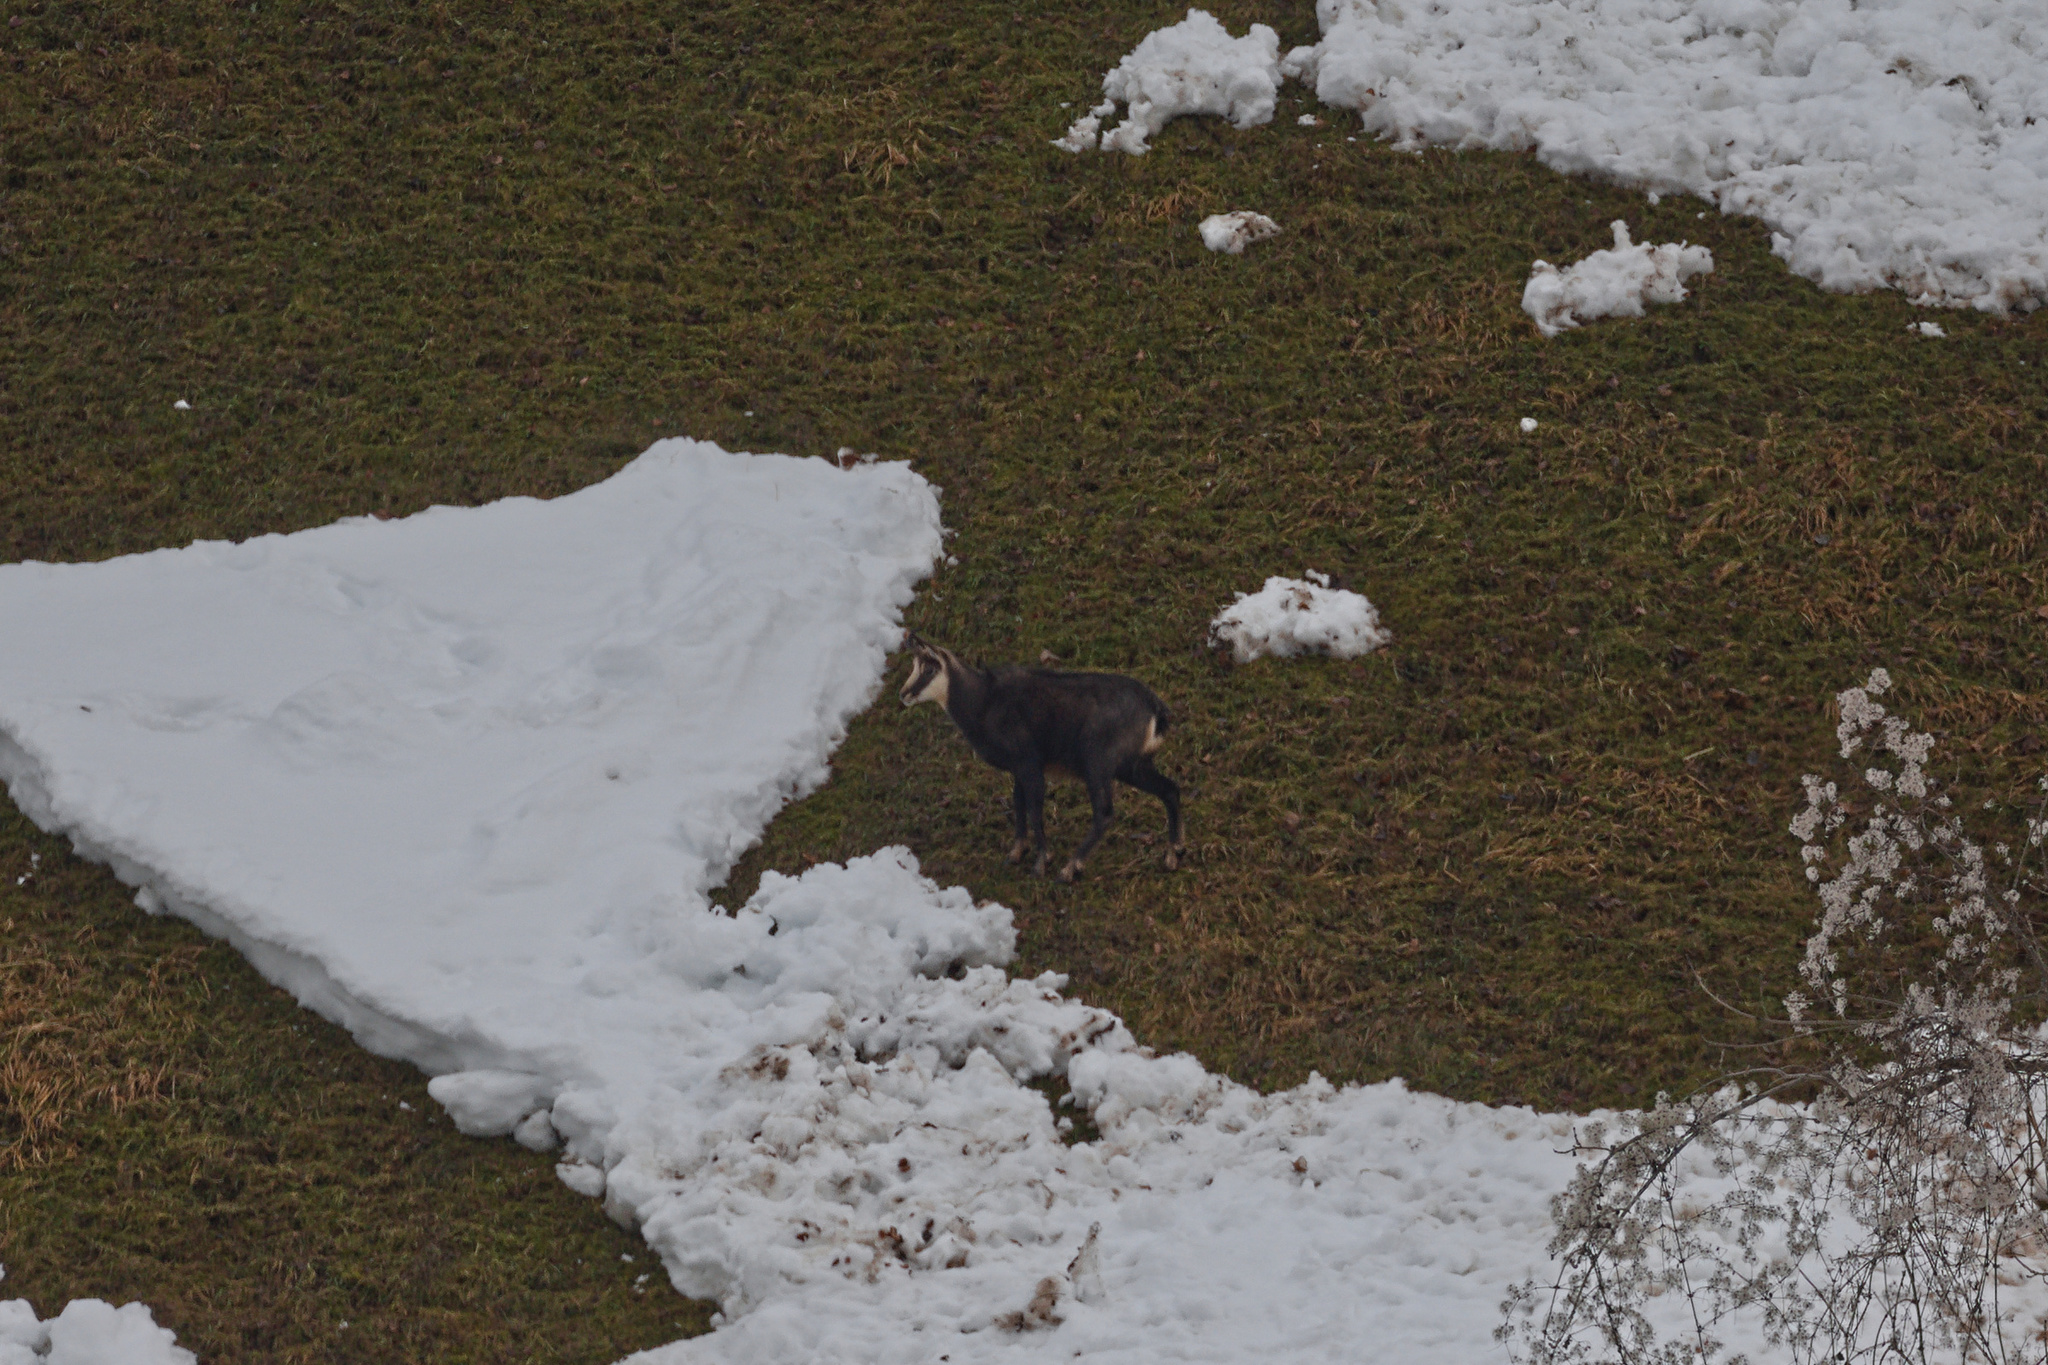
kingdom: Animalia
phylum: Chordata
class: Mammalia
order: Artiodactyla
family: Bovidae
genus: Rupicapra
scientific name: Rupicapra rupicapra
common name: Chamois
